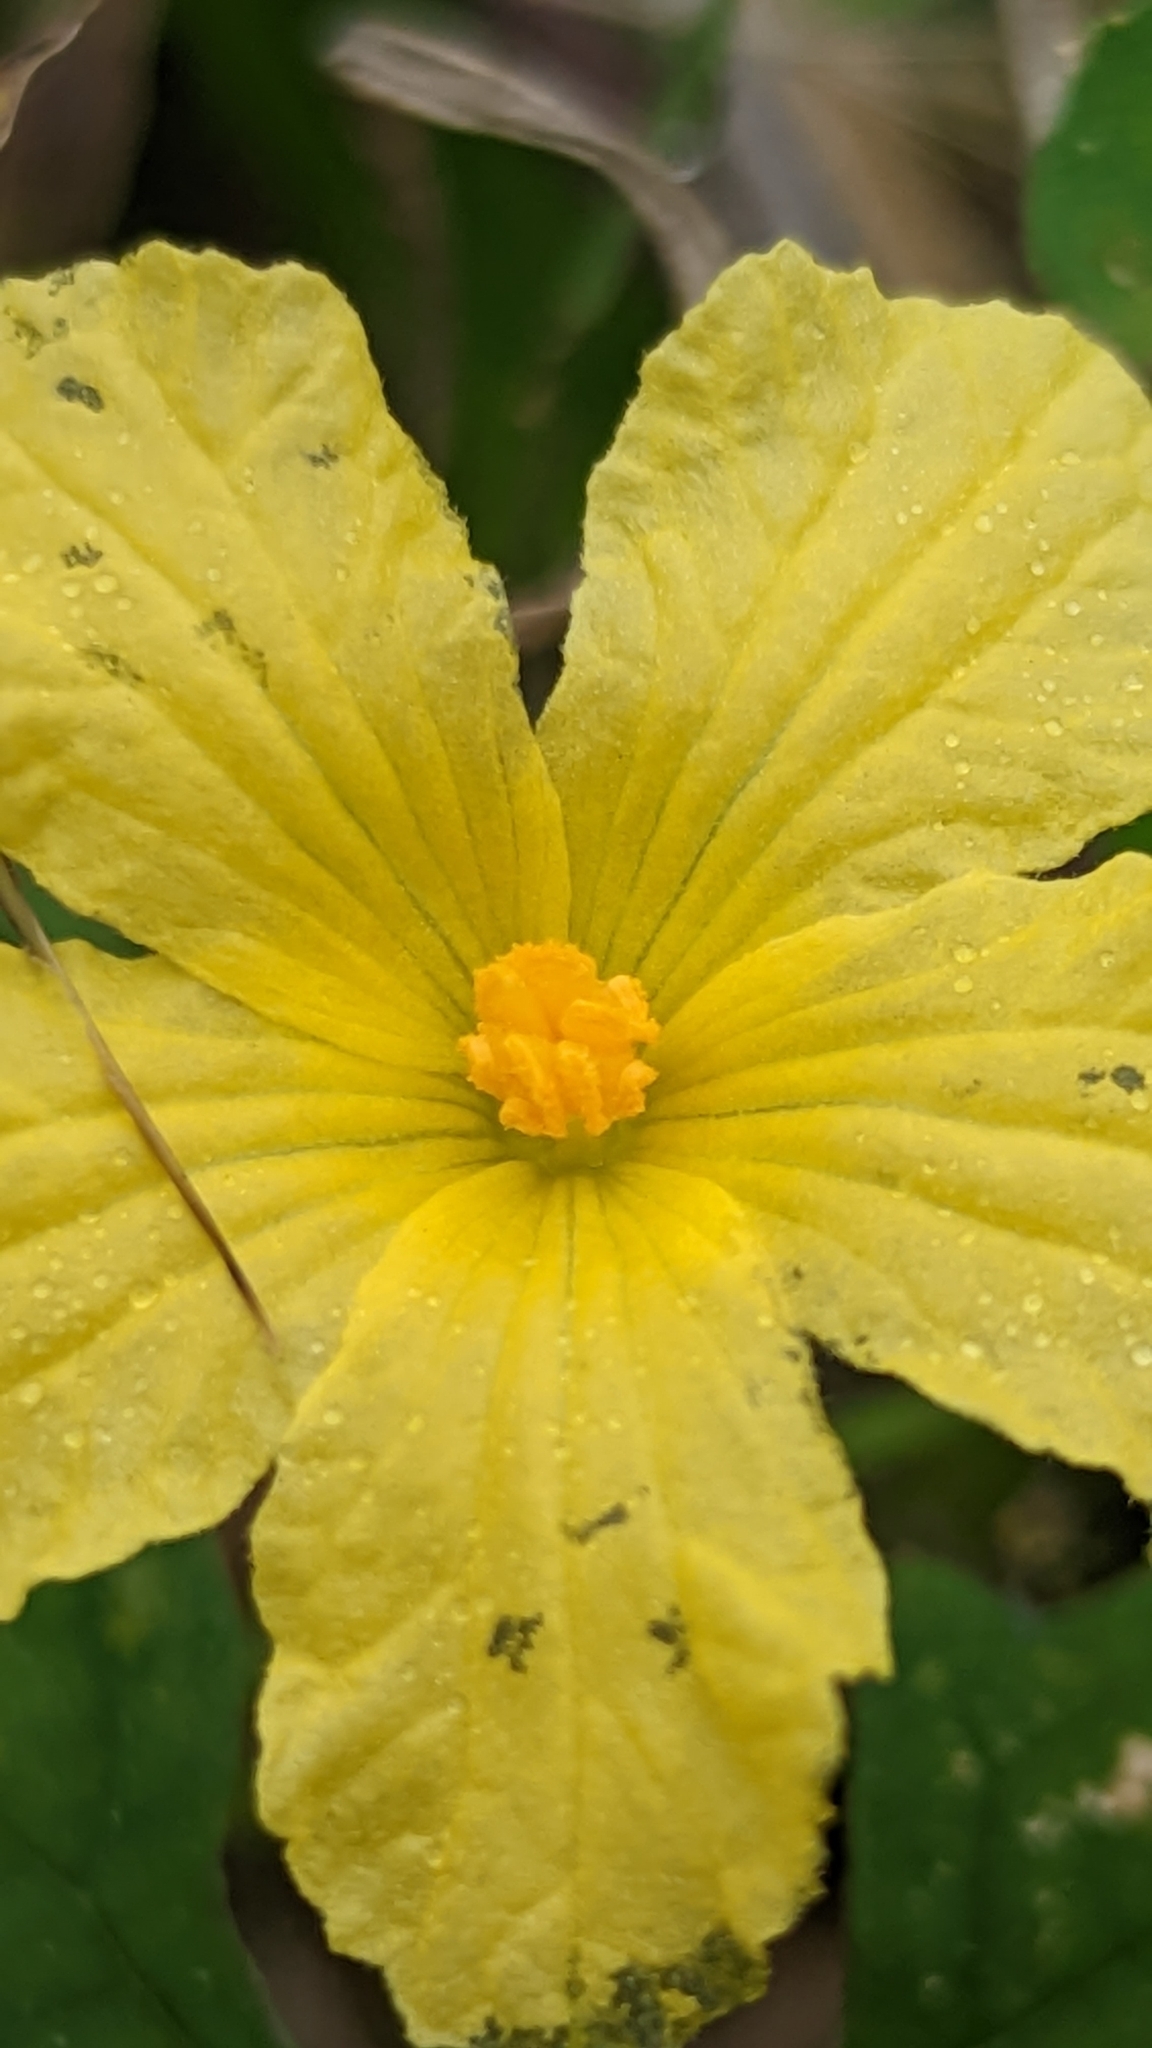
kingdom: Plantae
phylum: Tracheophyta
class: Magnoliopsida
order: Cucurbitales
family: Cucurbitaceae
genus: Momordica
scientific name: Momordica charantia
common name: Balsampear
